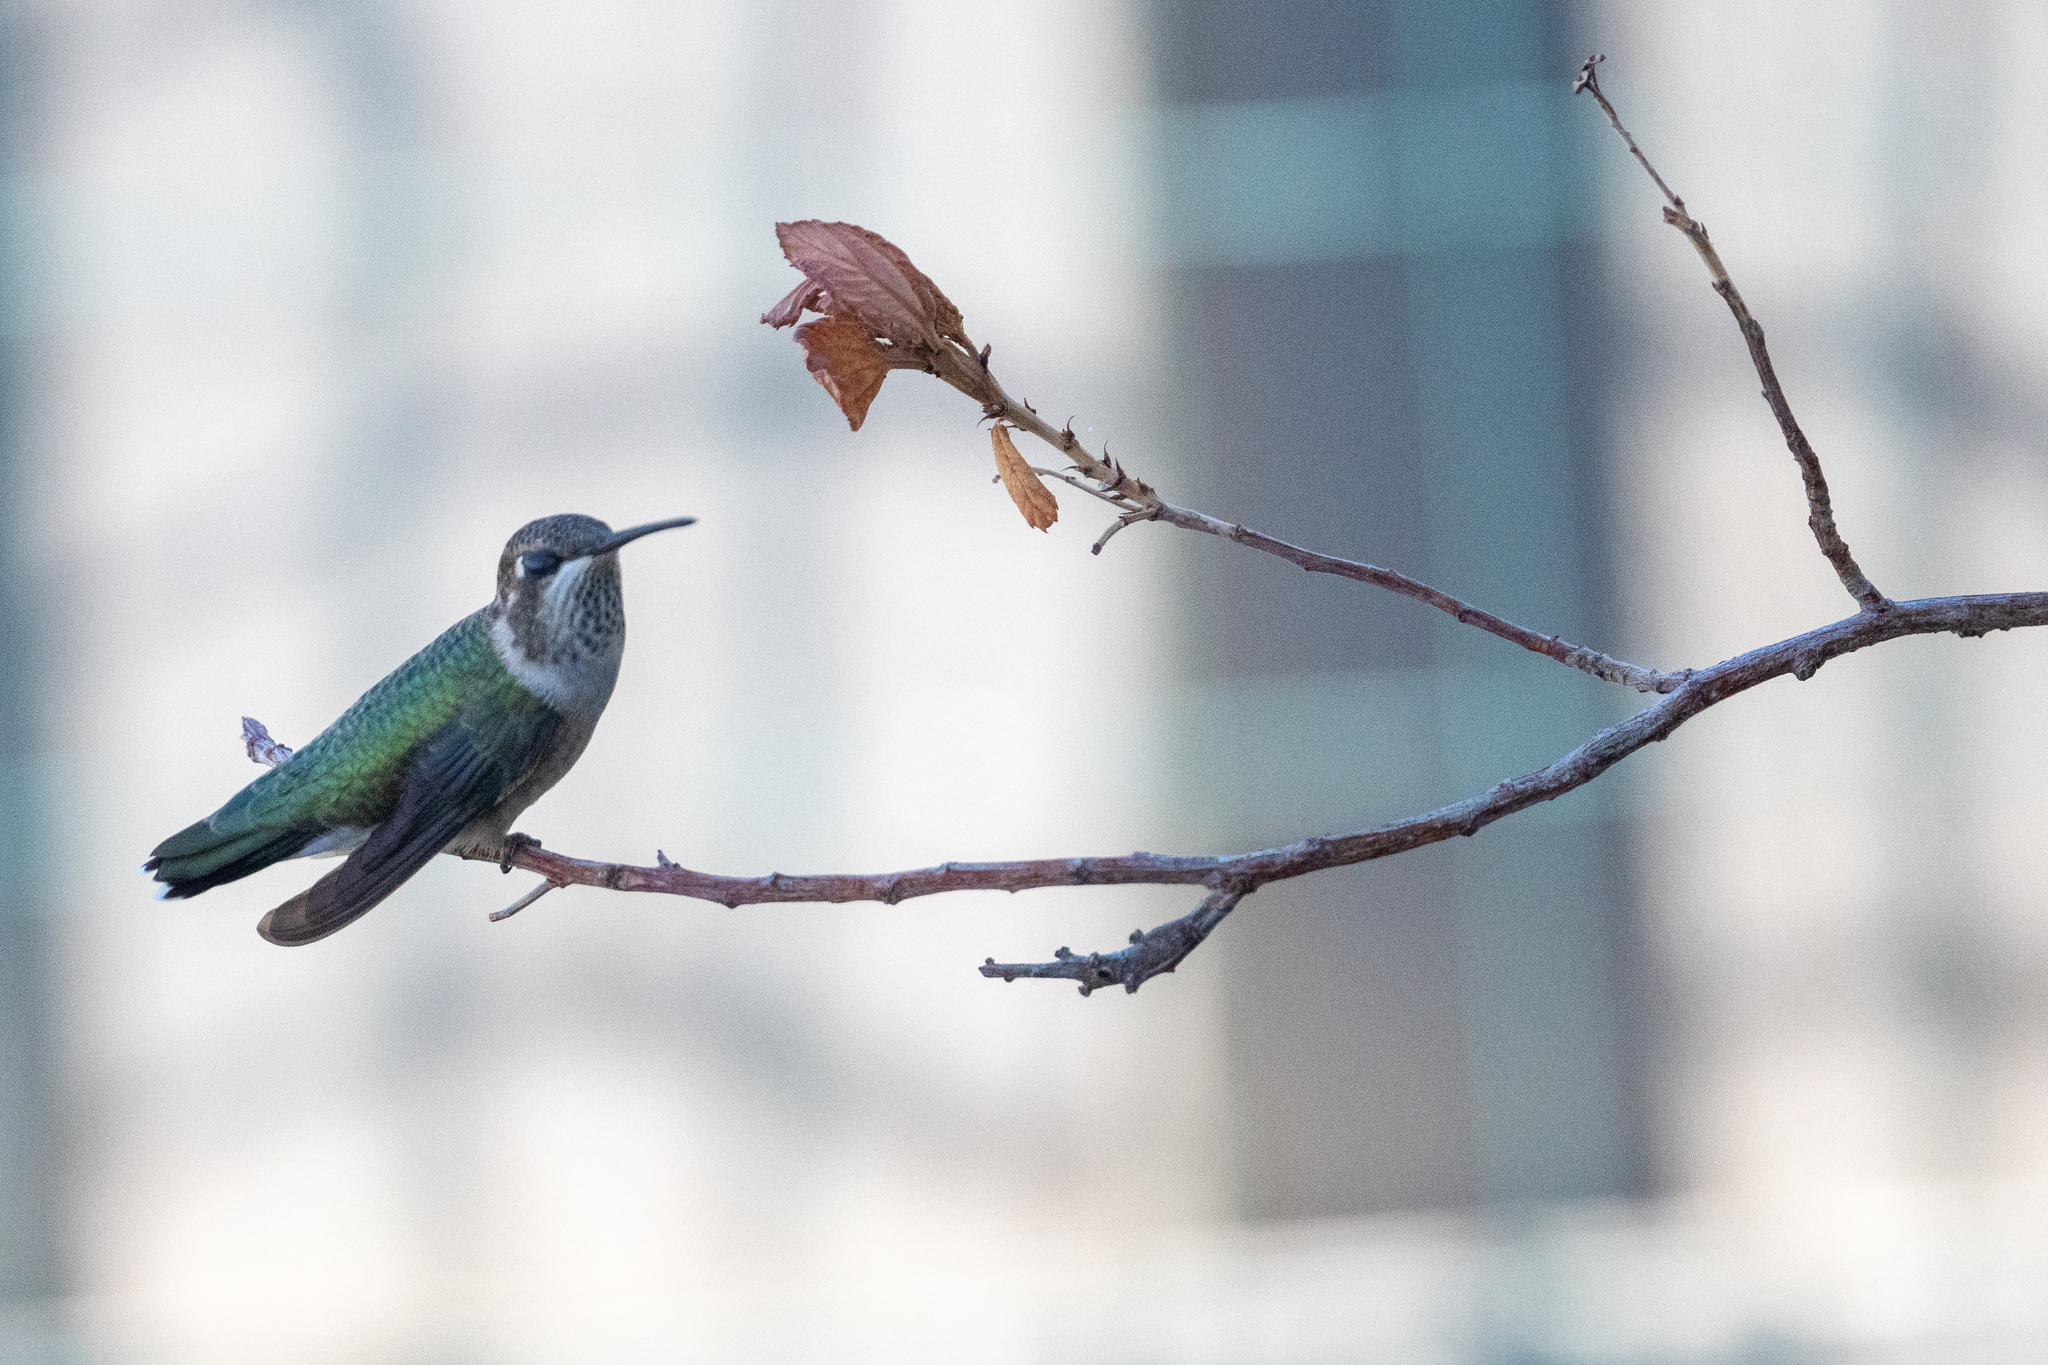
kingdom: Animalia
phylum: Chordata
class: Aves
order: Apodiformes
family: Trochilidae
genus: Calypte
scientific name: Calypte anna
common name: Anna's hummingbird
